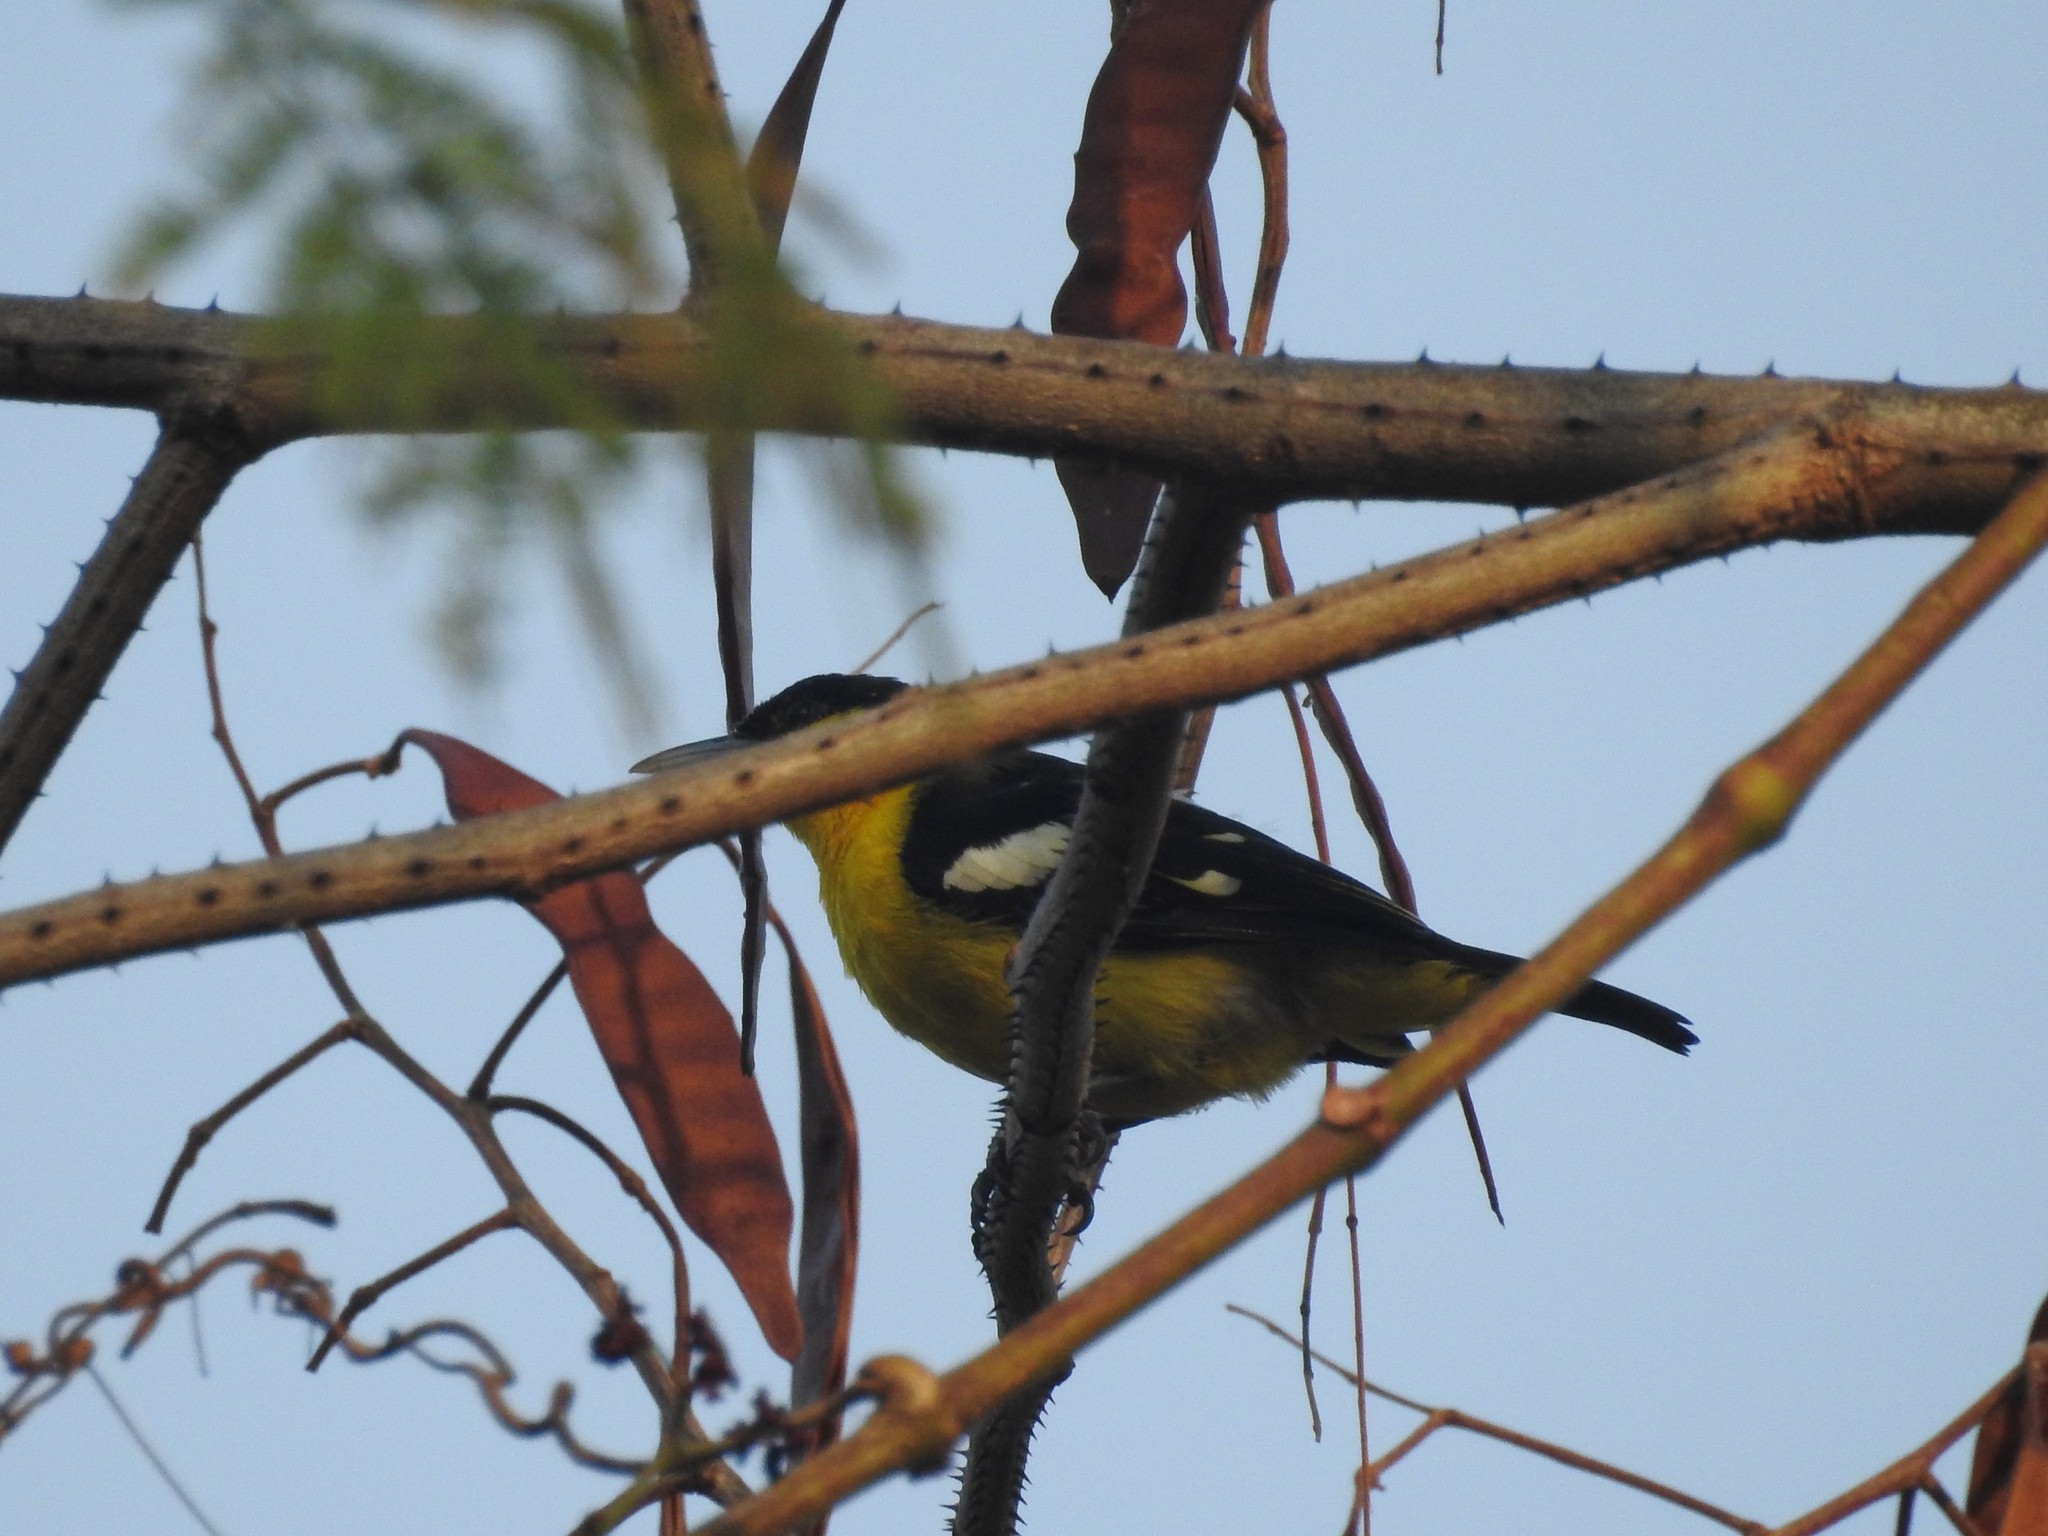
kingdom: Animalia
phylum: Chordata
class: Aves
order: Passeriformes
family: Aegithinidae
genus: Aegithina
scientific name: Aegithina tiphia
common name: Common iora
